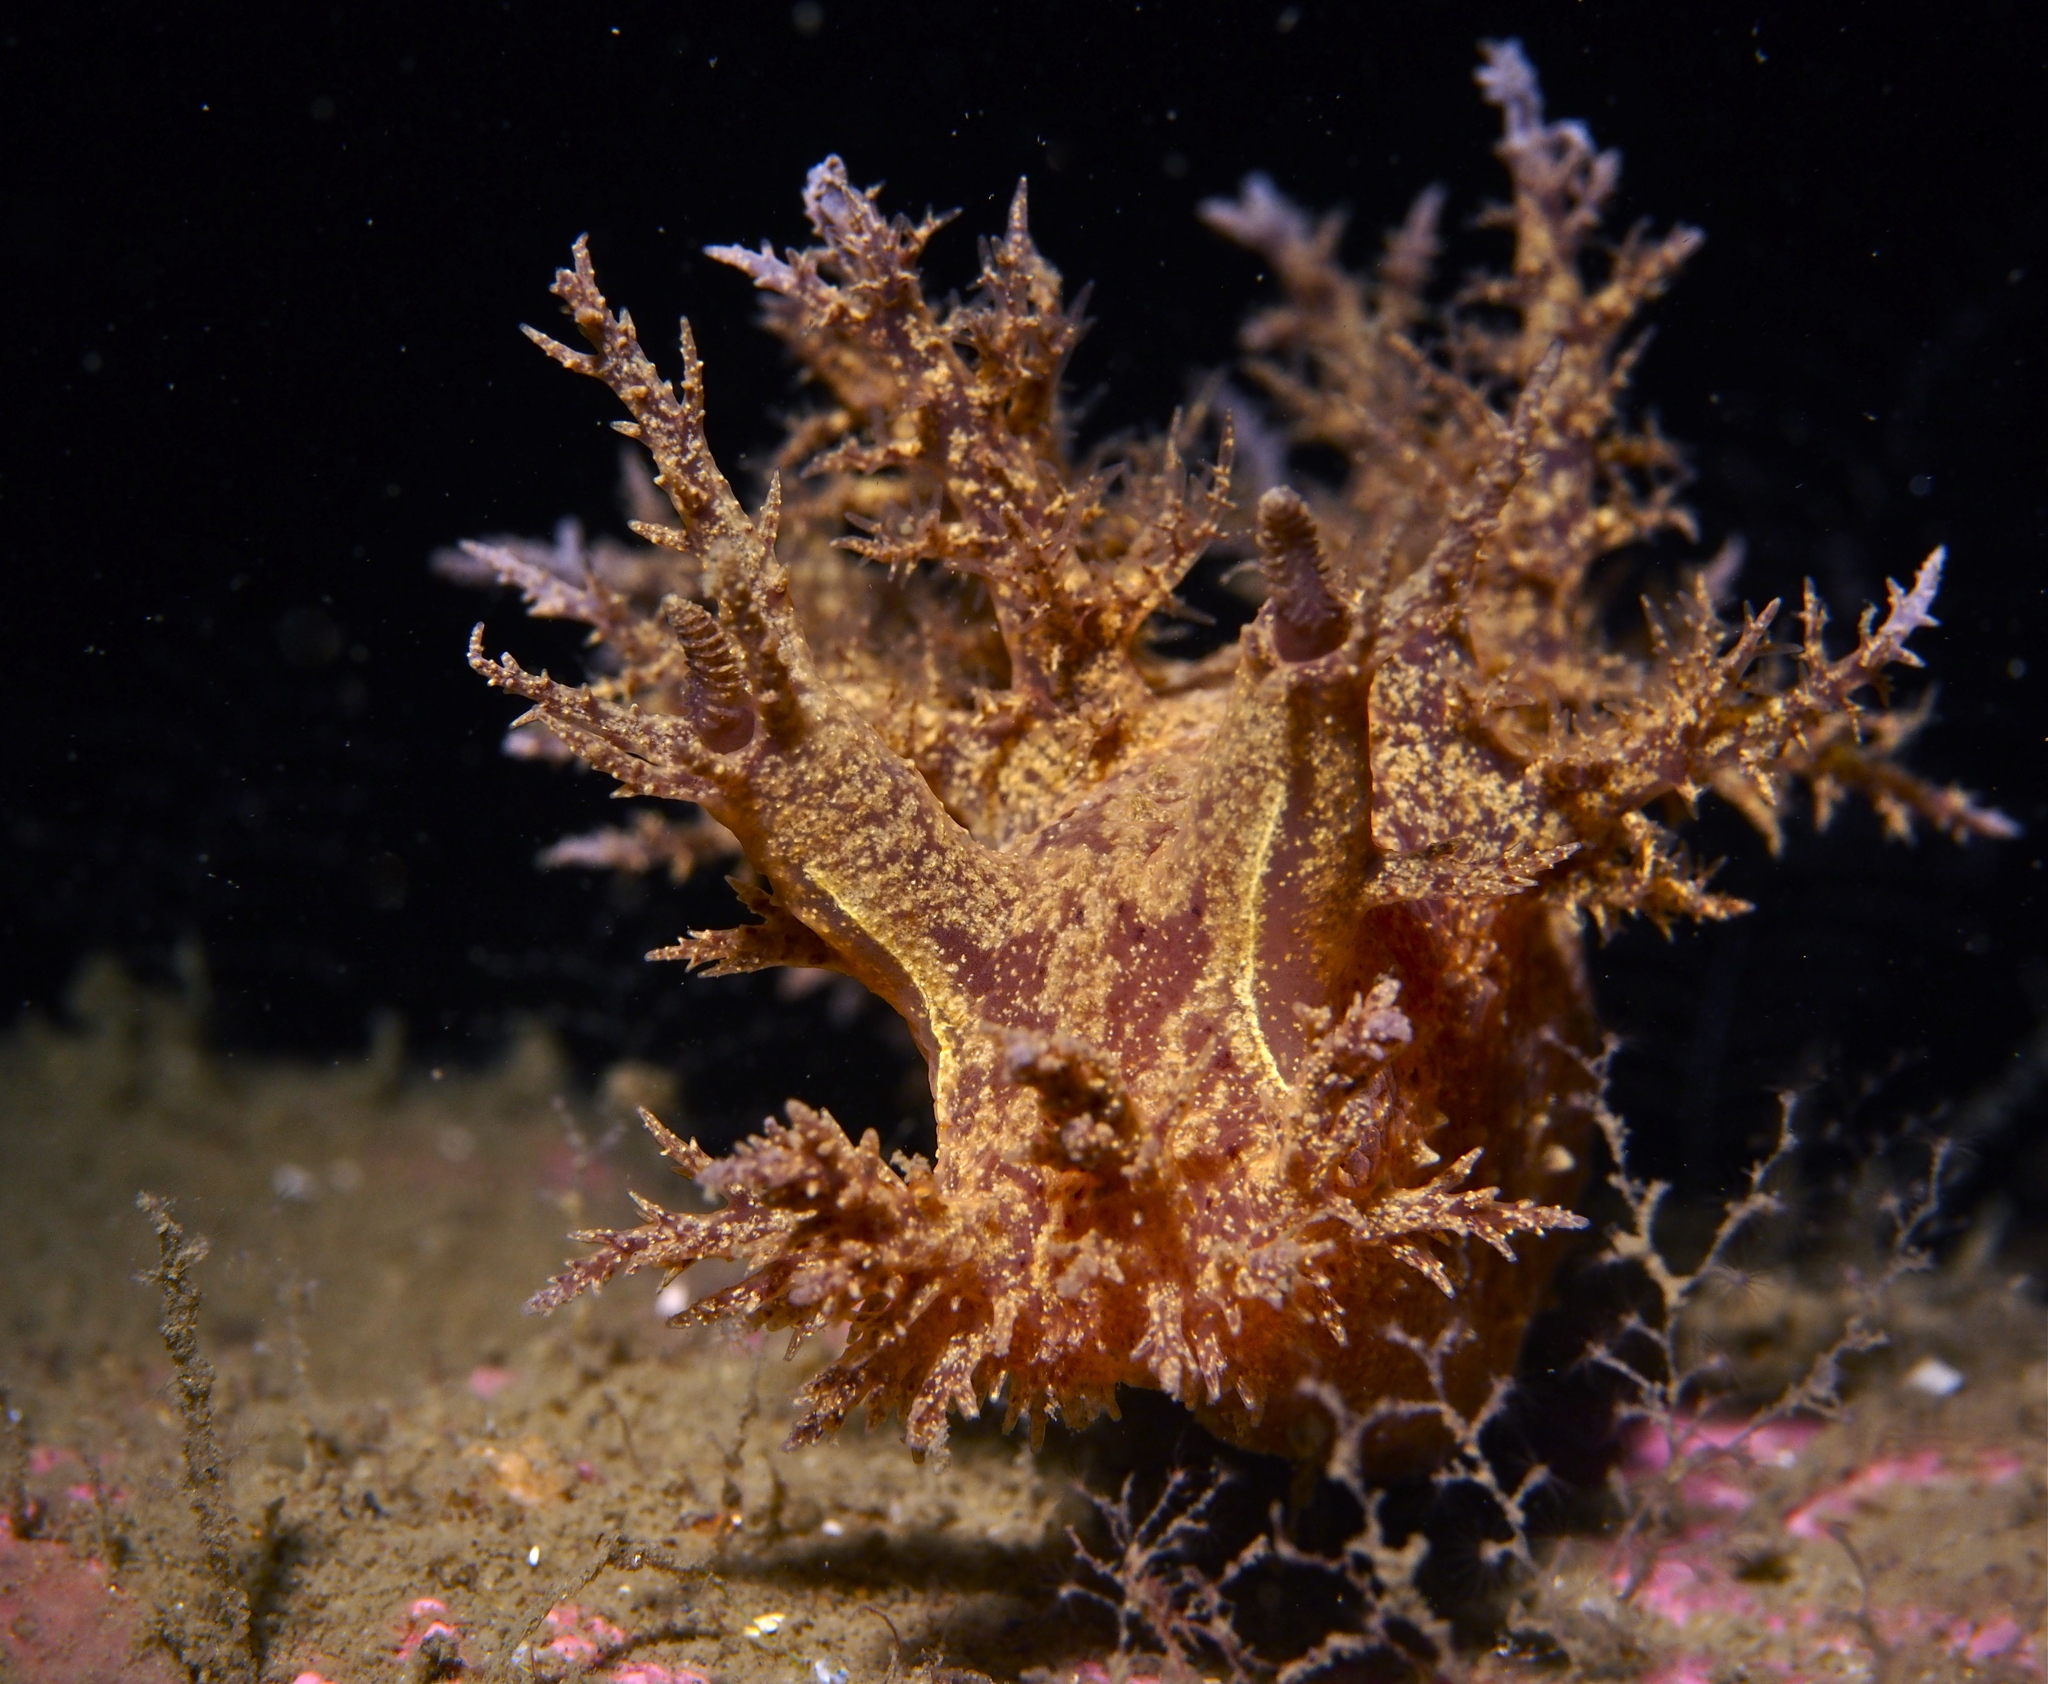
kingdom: Animalia
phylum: Mollusca
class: Gastropoda
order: Nudibranchia
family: Dendronotidae
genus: Dendronotus
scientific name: Dendronotus europaeus
